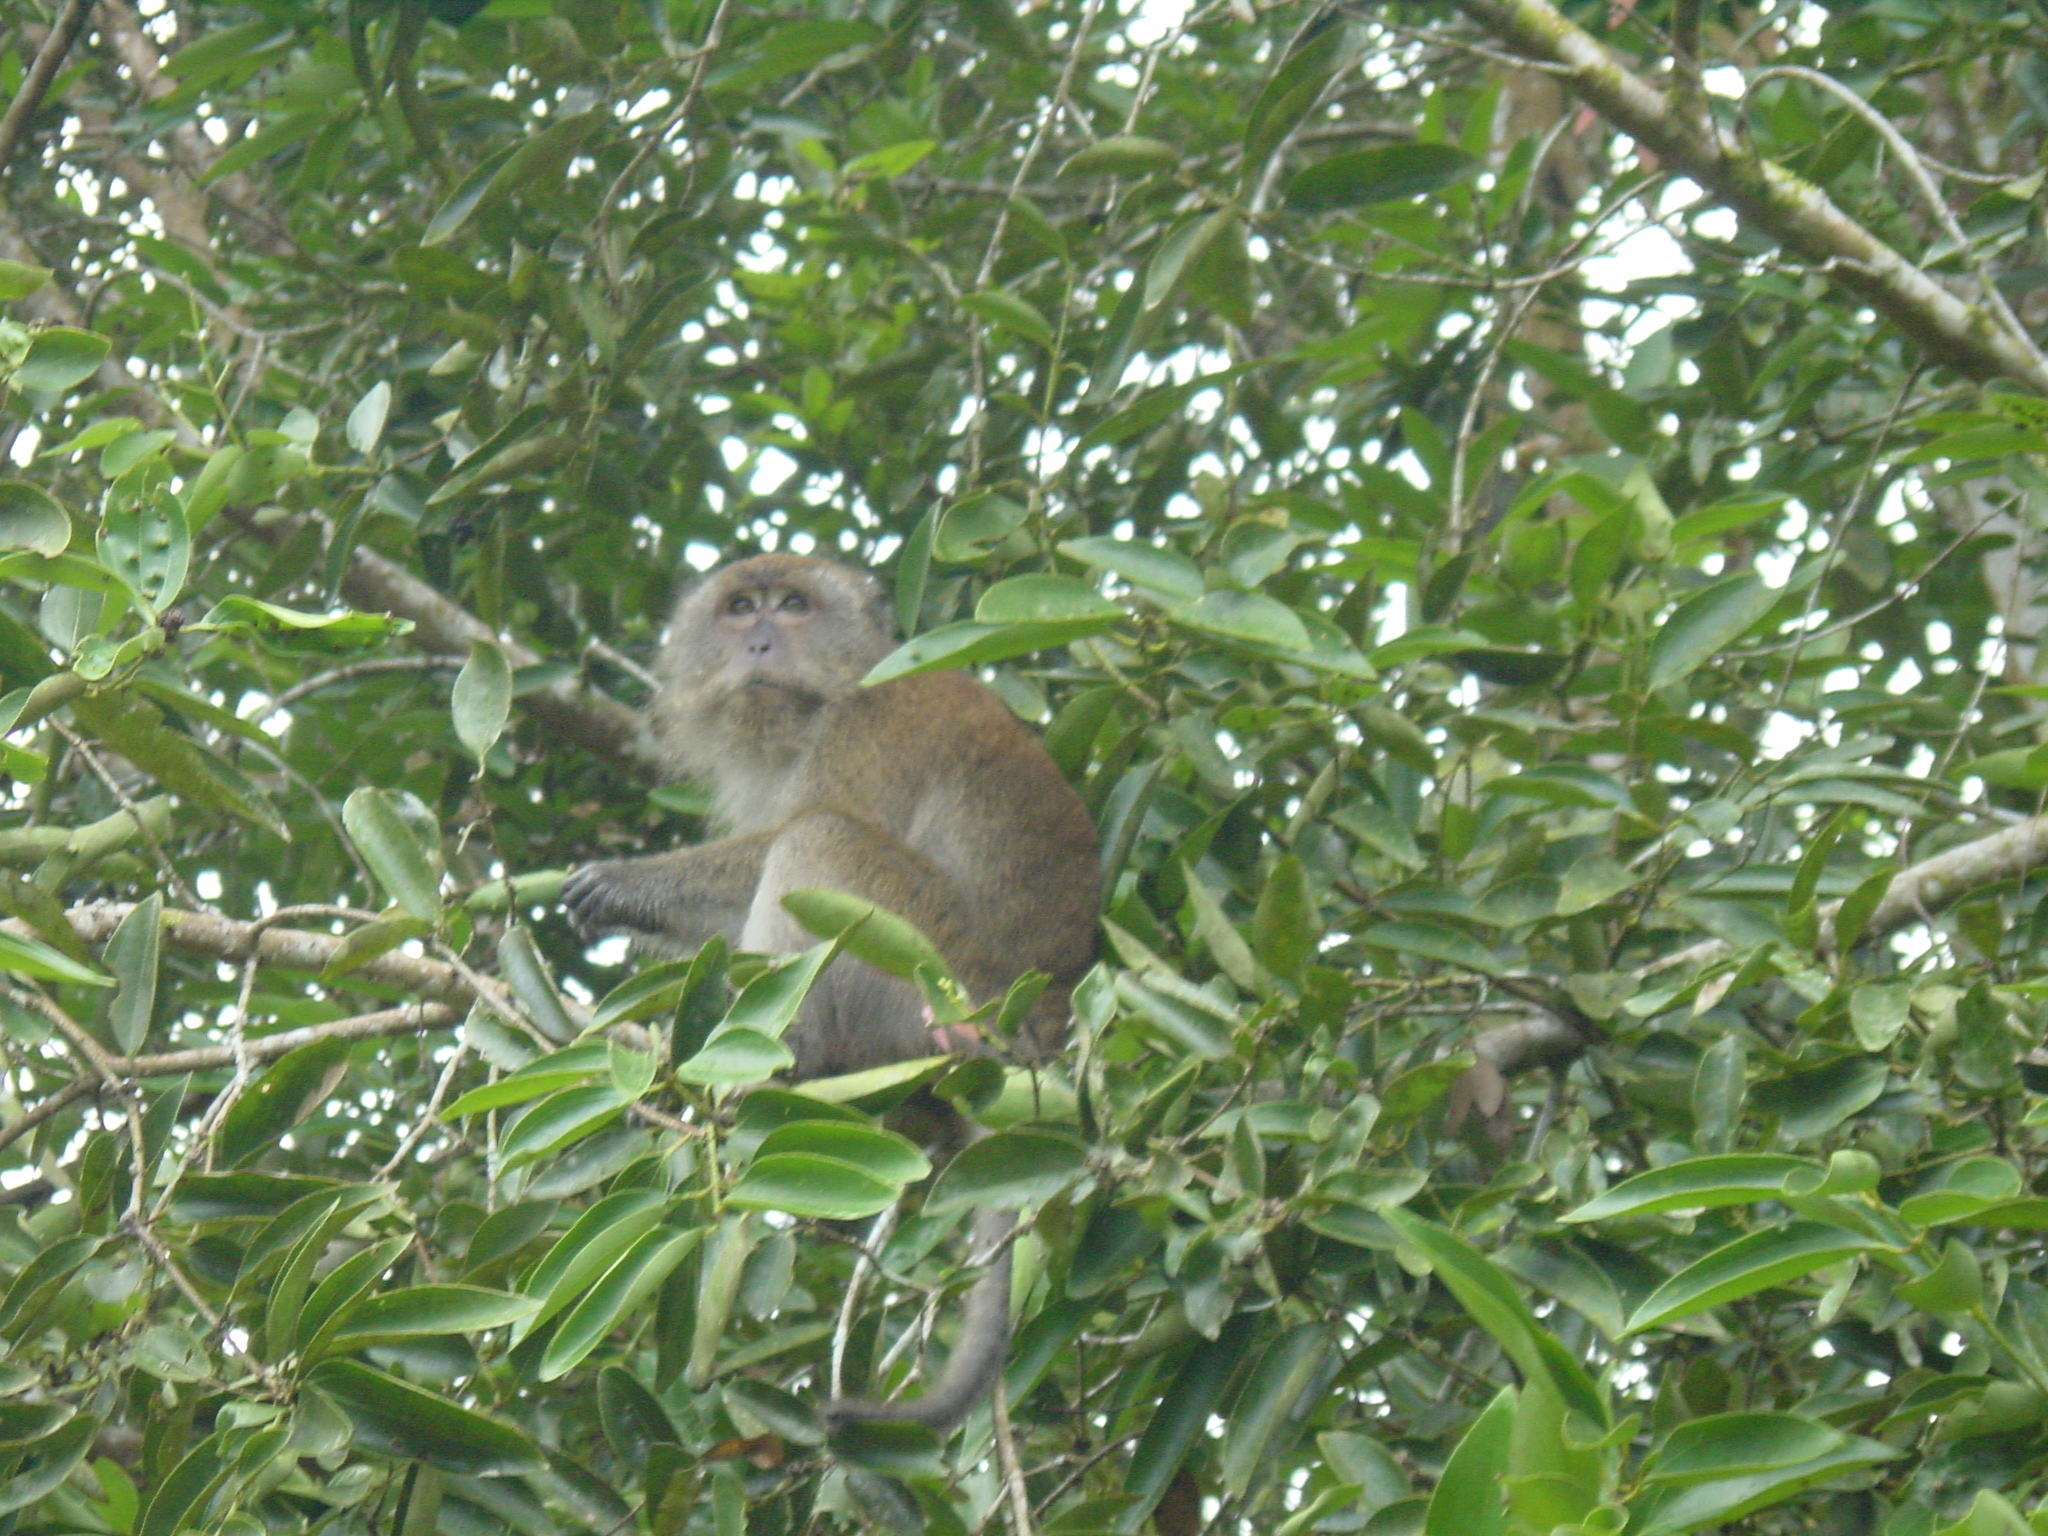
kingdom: Animalia
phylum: Chordata
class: Mammalia
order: Primates
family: Cercopithecidae
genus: Macaca
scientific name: Macaca fascicularis
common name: Crab-eating macaque
